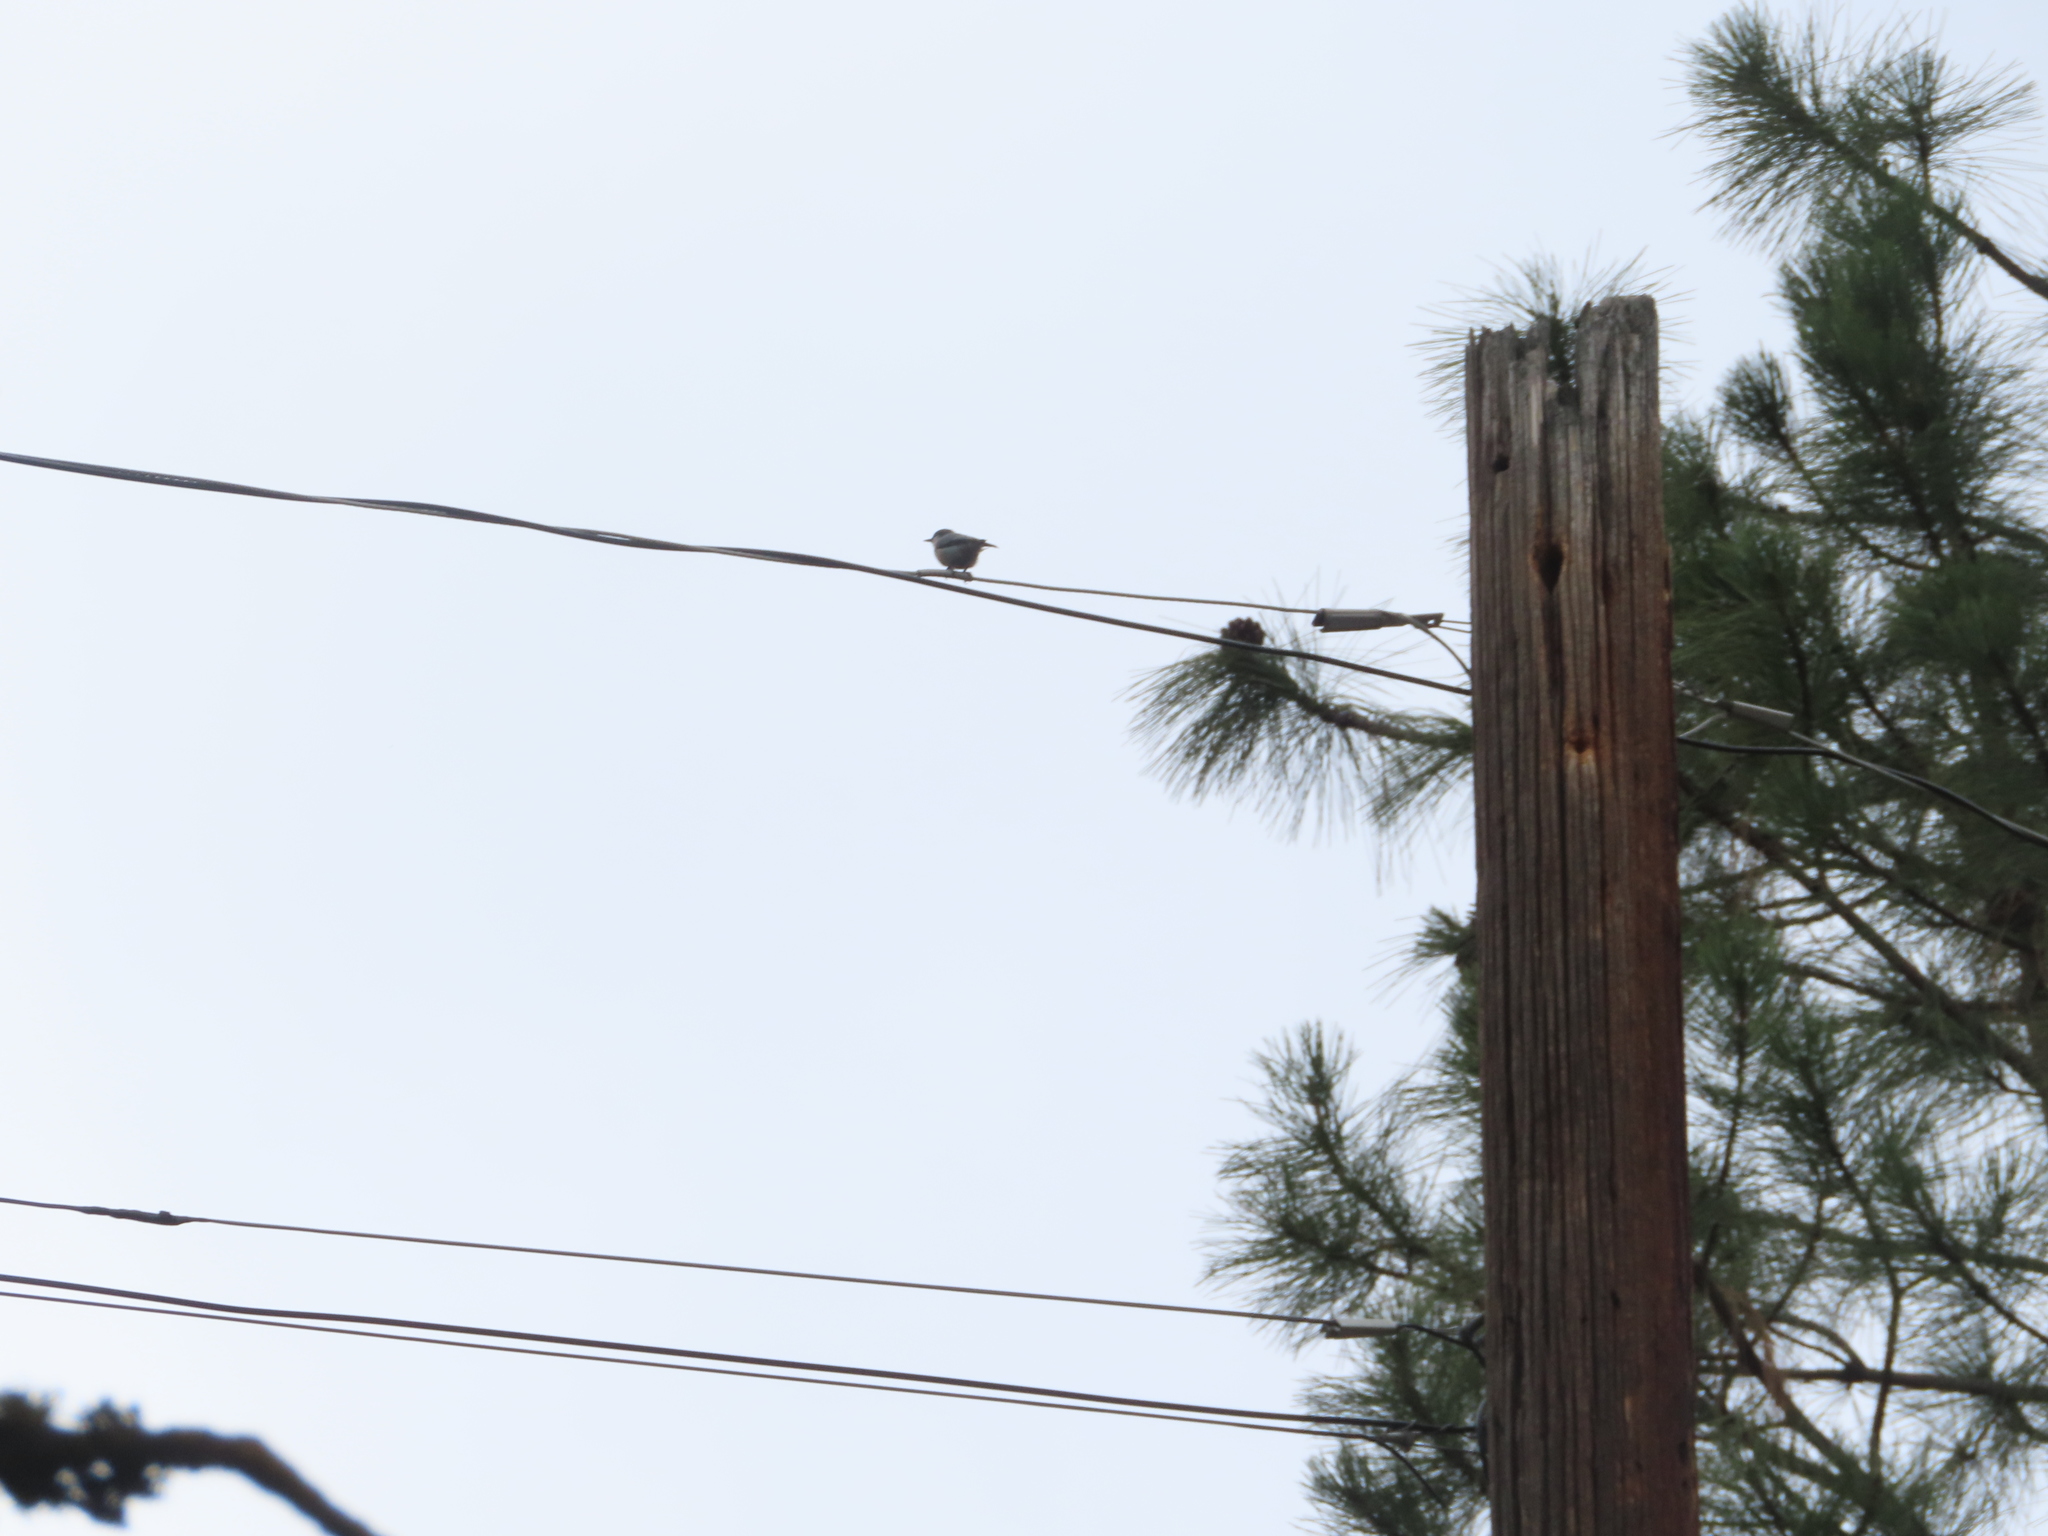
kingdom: Animalia
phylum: Chordata
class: Aves
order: Passeriformes
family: Sittidae
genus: Sitta
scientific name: Sitta pygmaea
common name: Pygmy nuthatch
